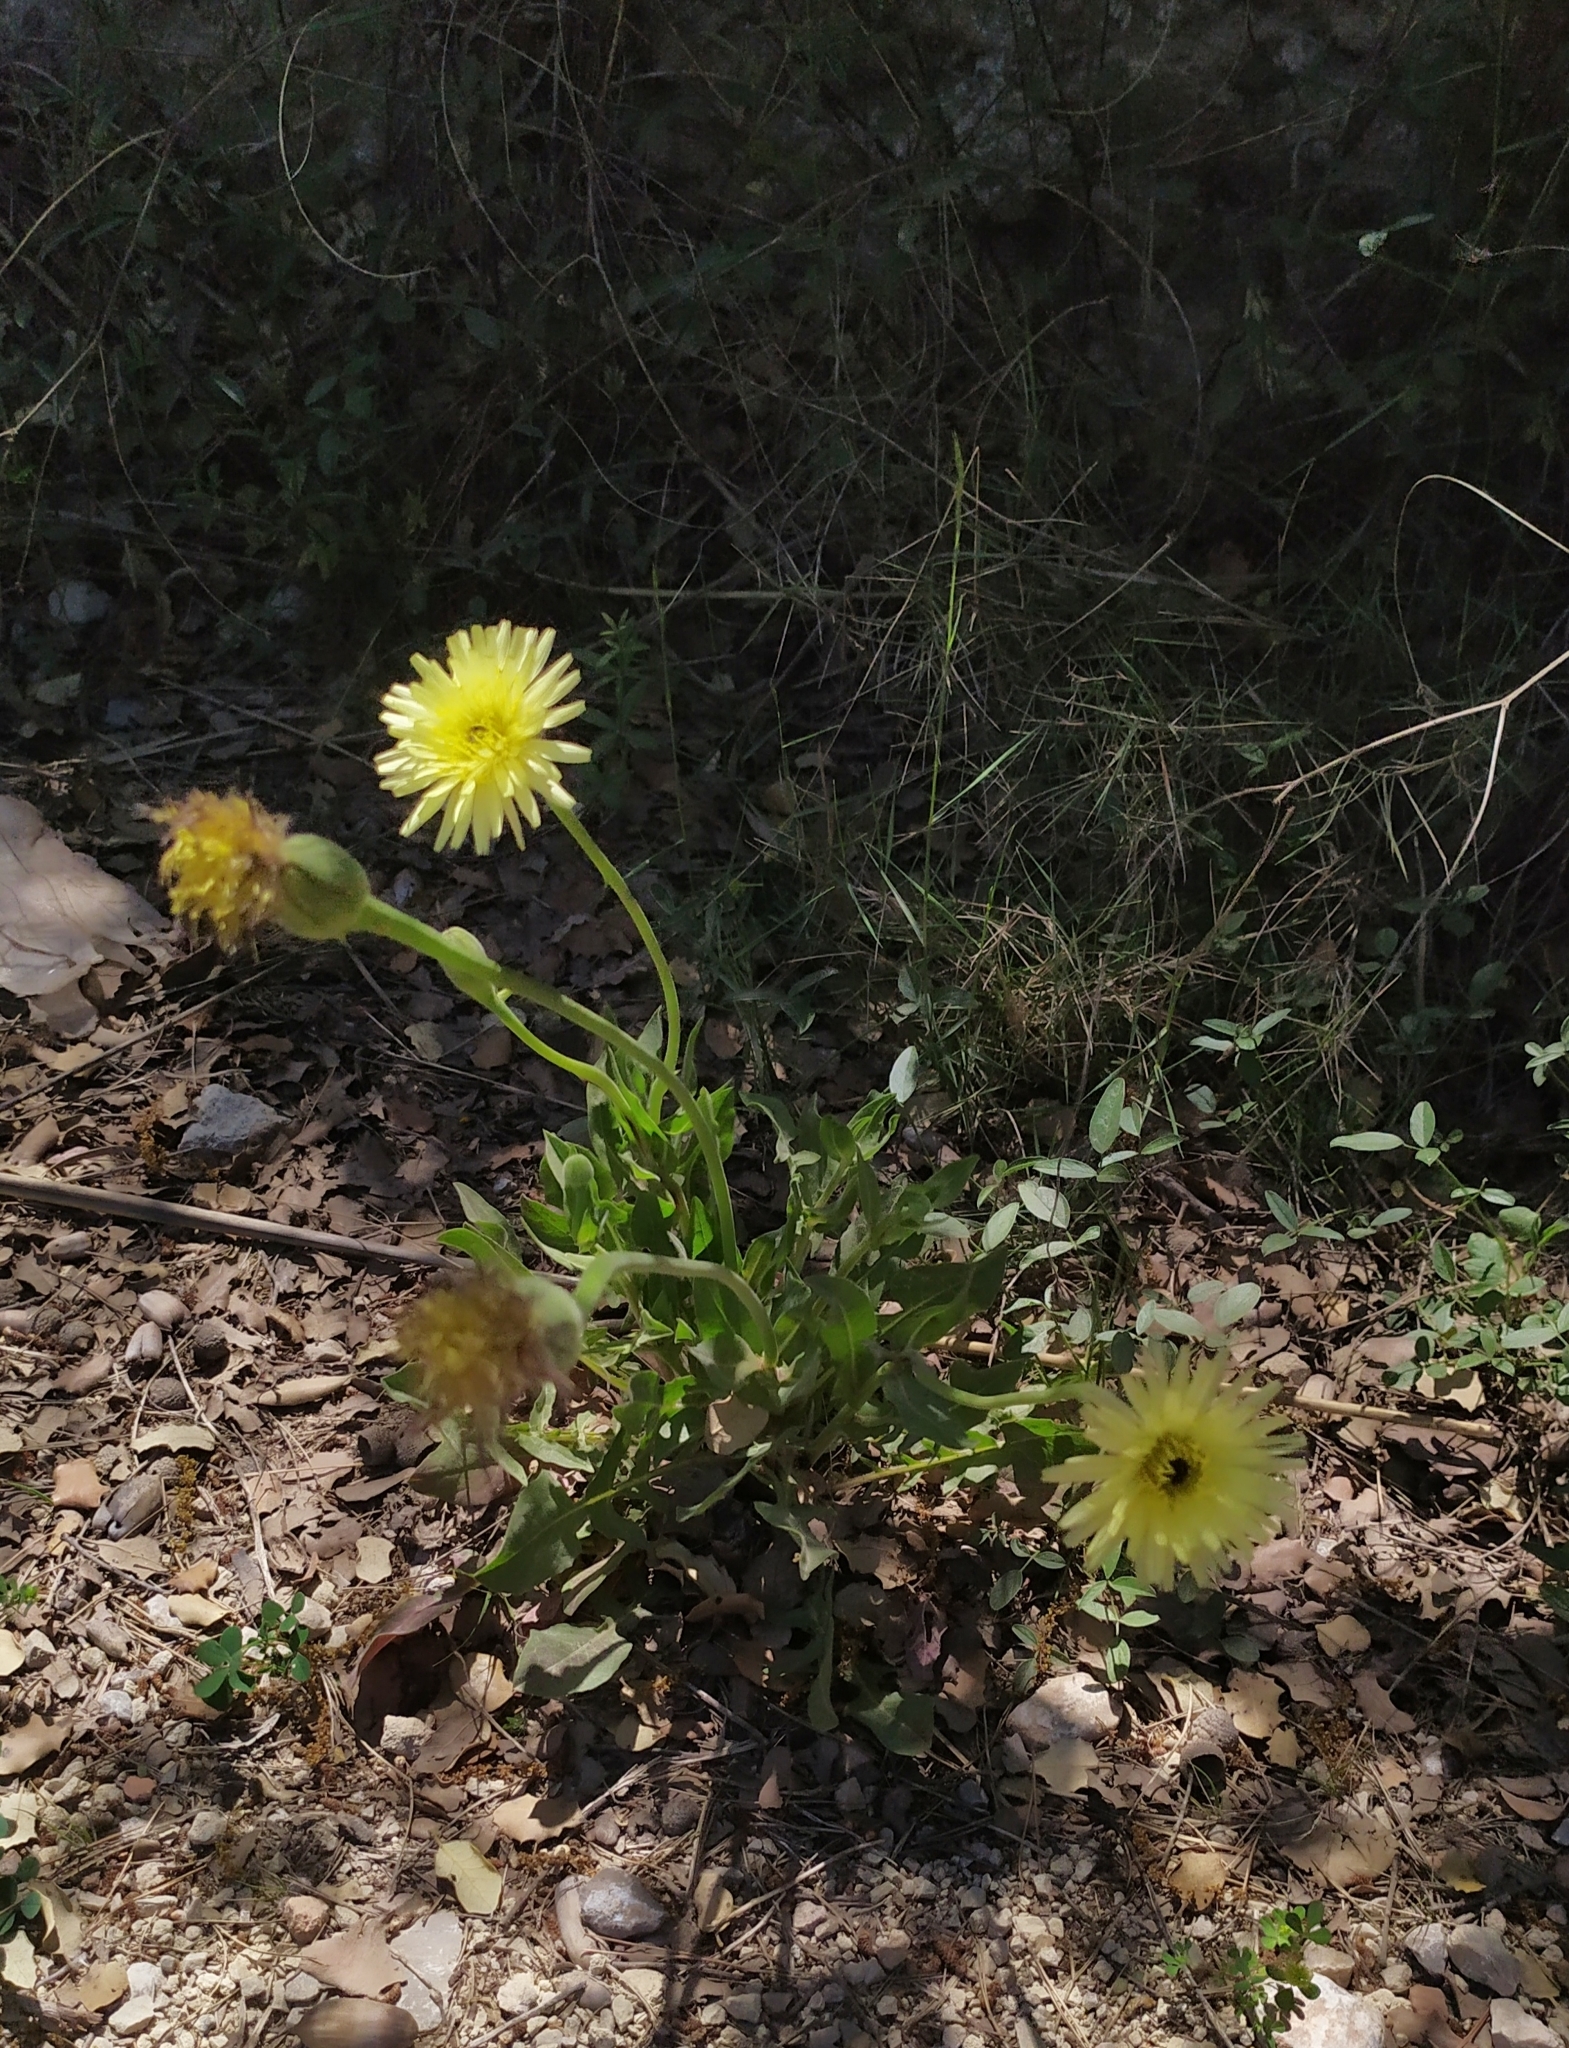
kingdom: Plantae
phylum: Tracheophyta
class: Magnoliopsida
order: Asterales
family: Asteraceae
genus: Urospermum
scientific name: Urospermum dalechampii
